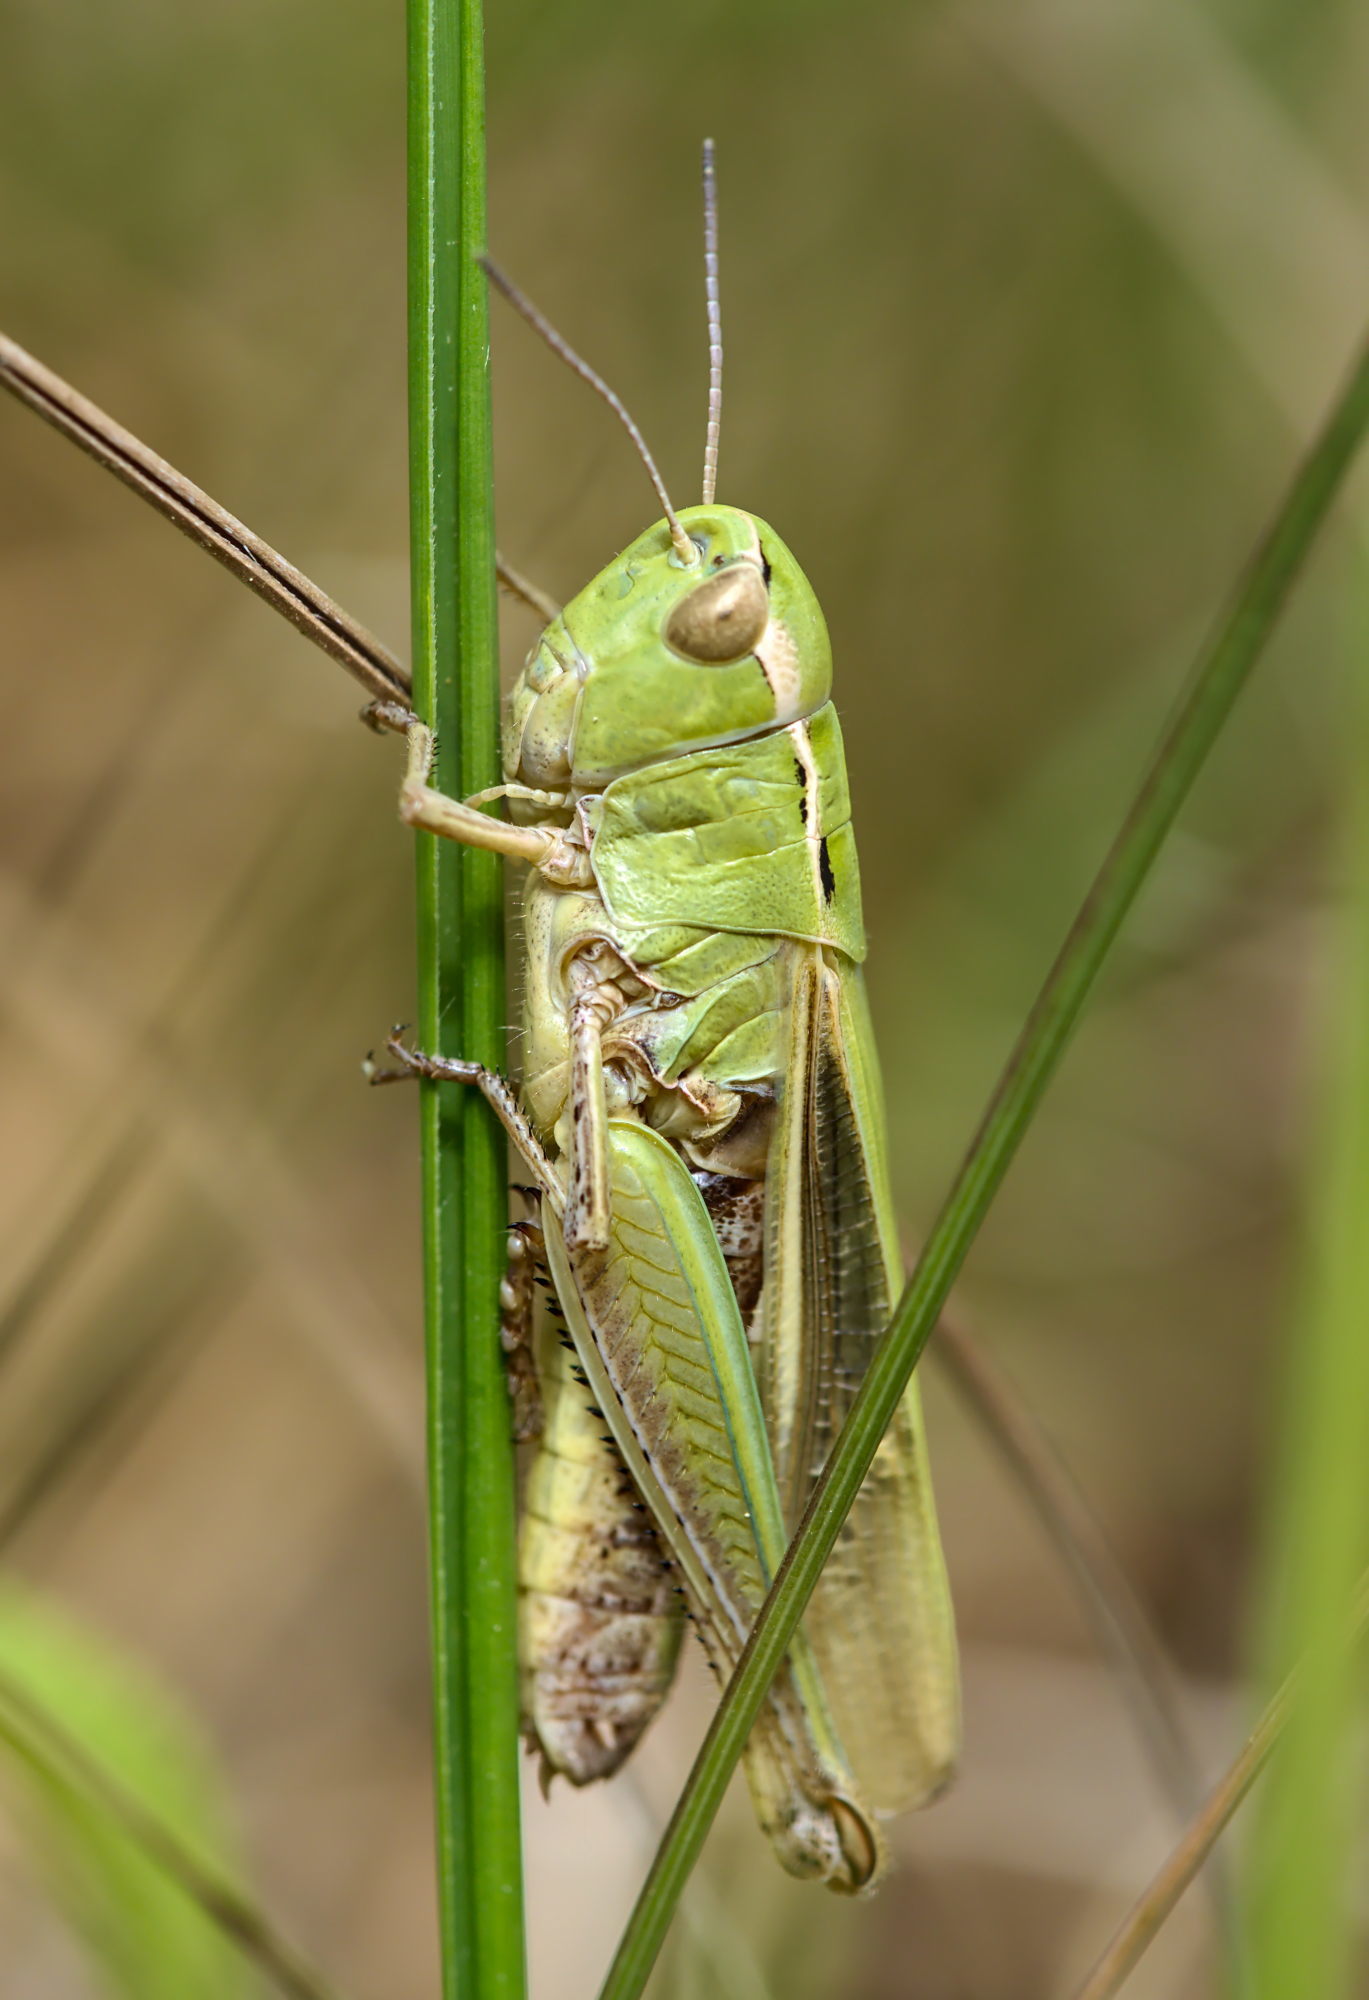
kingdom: Animalia
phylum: Arthropoda
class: Insecta
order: Orthoptera
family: Acrididae
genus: Stenobothrus
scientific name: Stenobothrus lineatus
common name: Stripe-winged grasshopper
